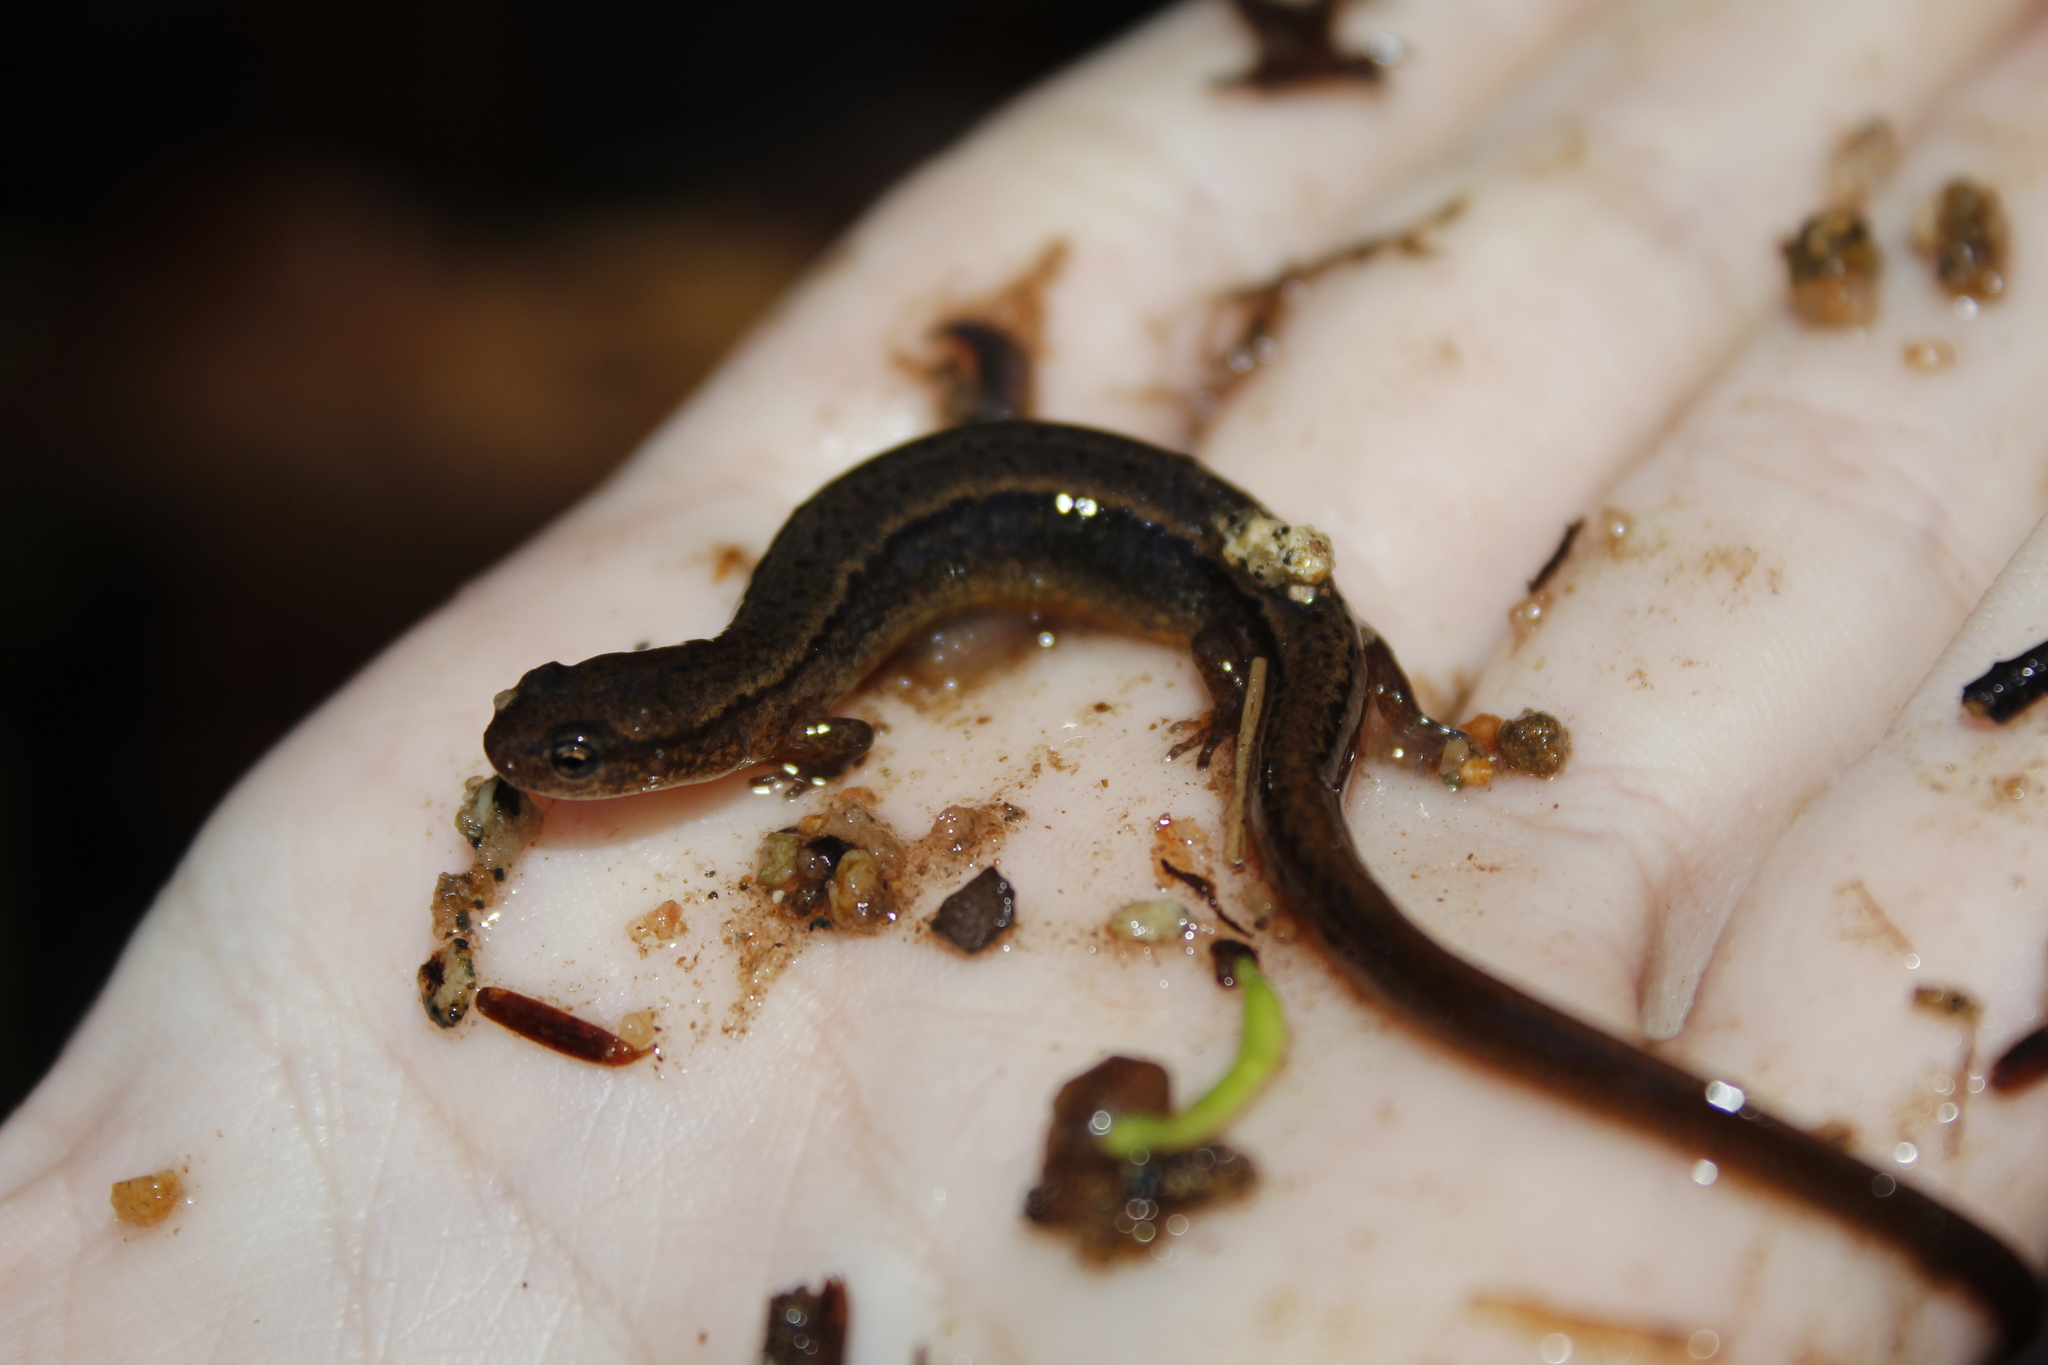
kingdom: Animalia
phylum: Chordata
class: Amphibia
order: Caudata
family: Plethodontidae
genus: Eurycea
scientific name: Eurycea bislineata
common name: Northern two-lined salamander
